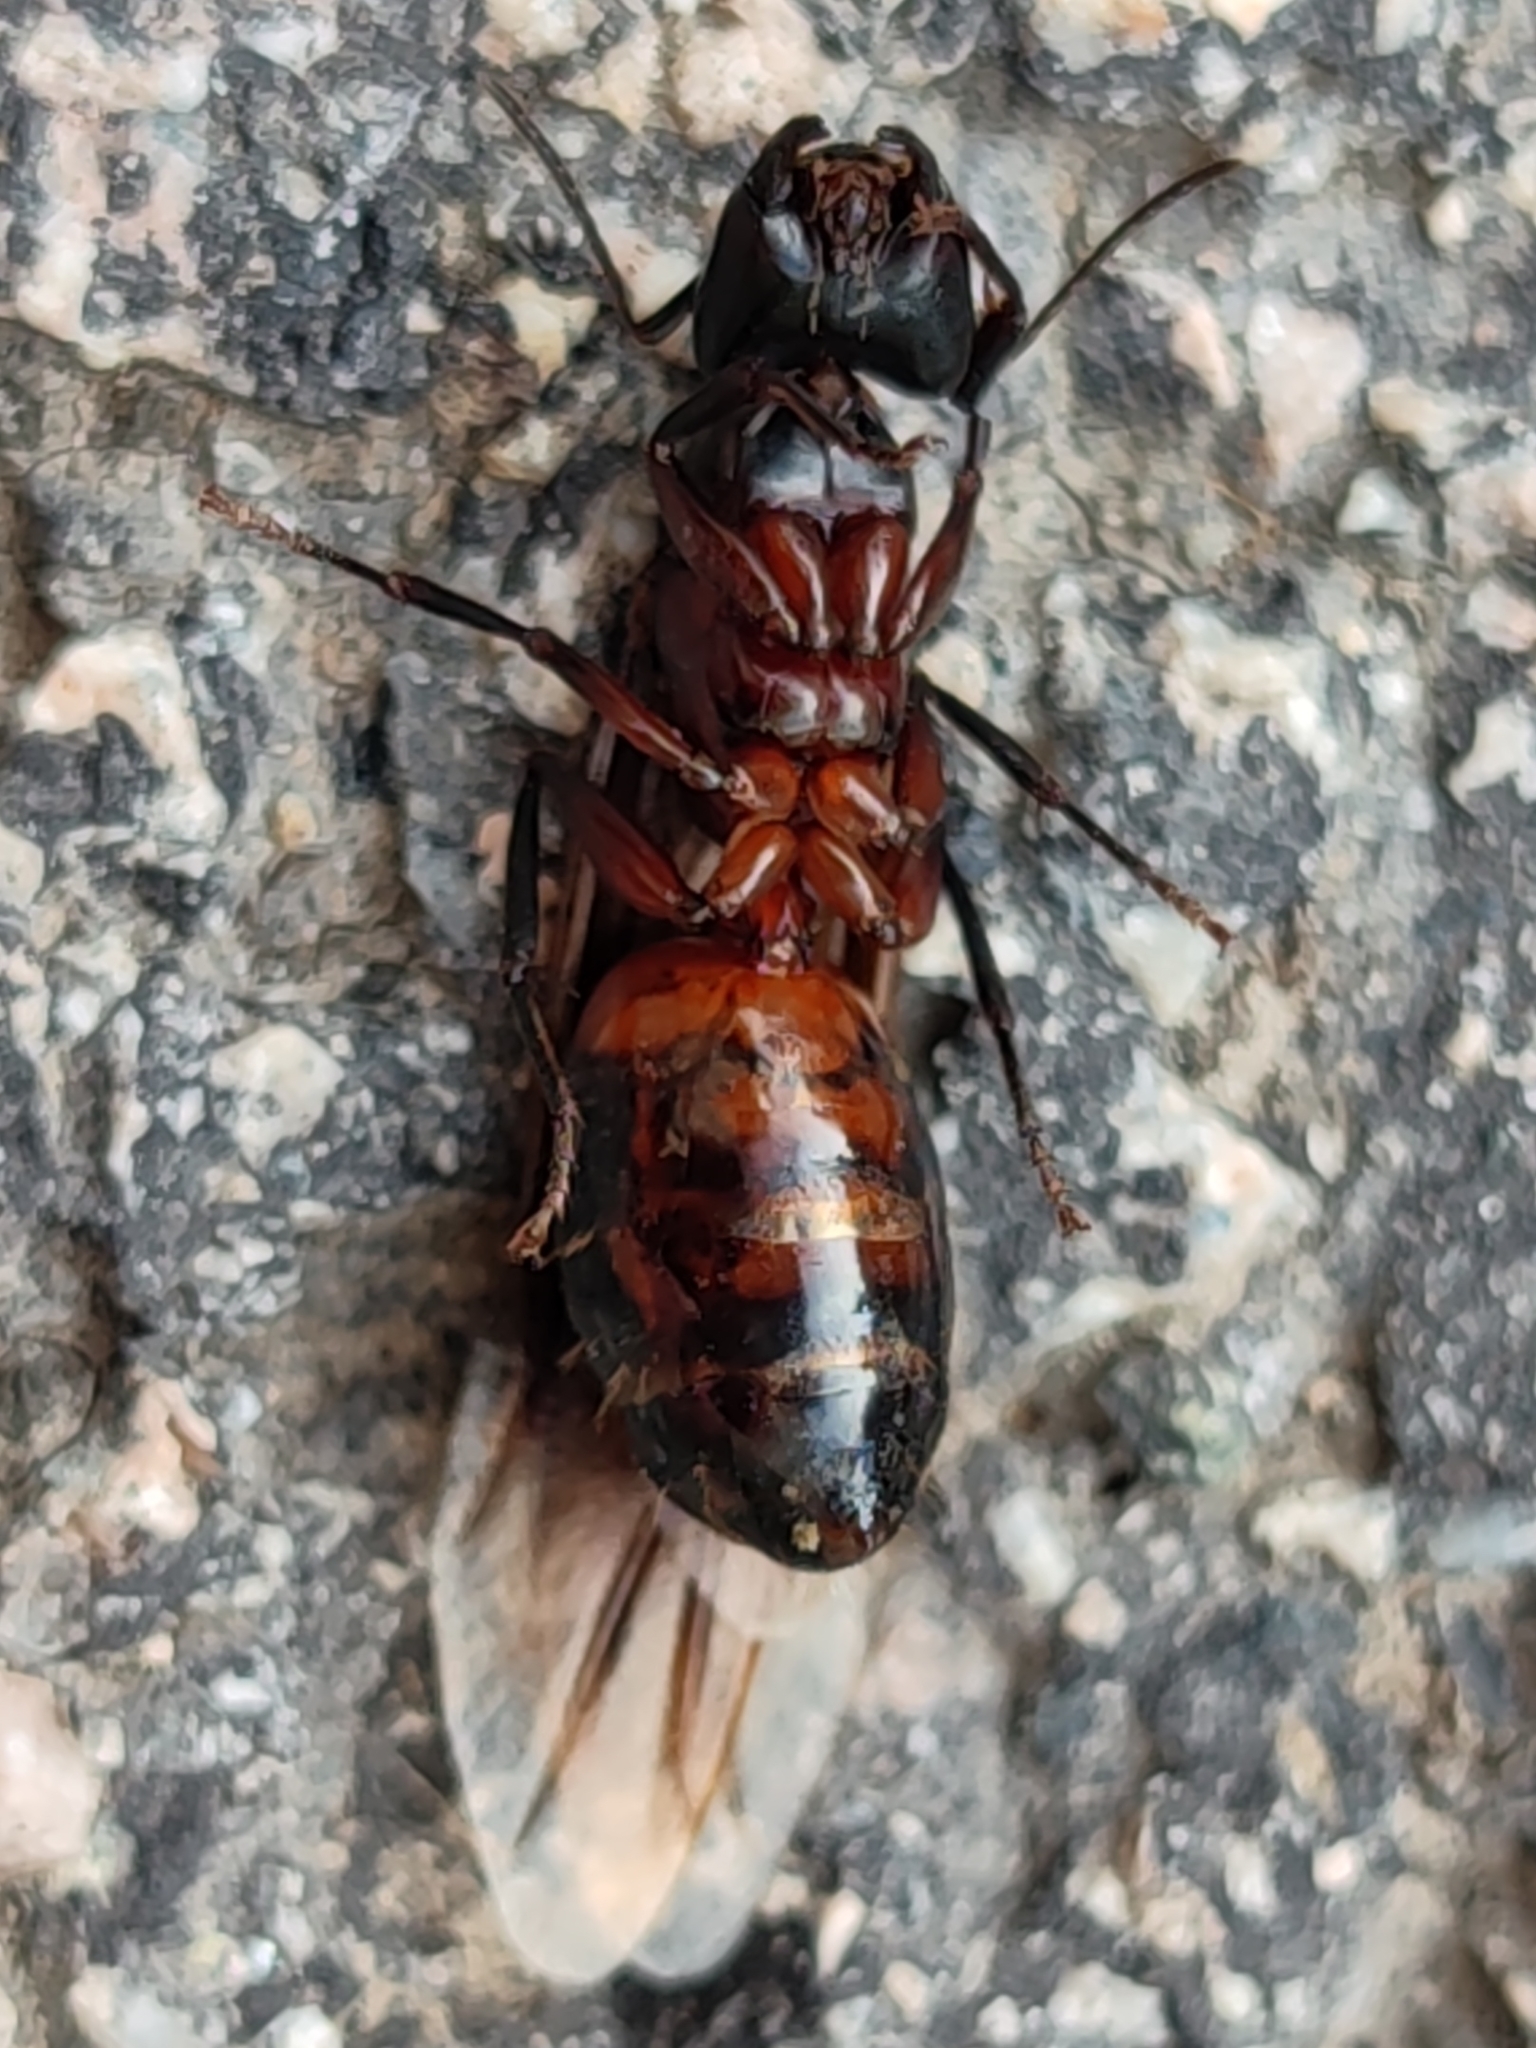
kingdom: Animalia
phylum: Arthropoda
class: Insecta
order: Hymenoptera
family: Formicidae
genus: Camponotus
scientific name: Camponotus ligniperdus
